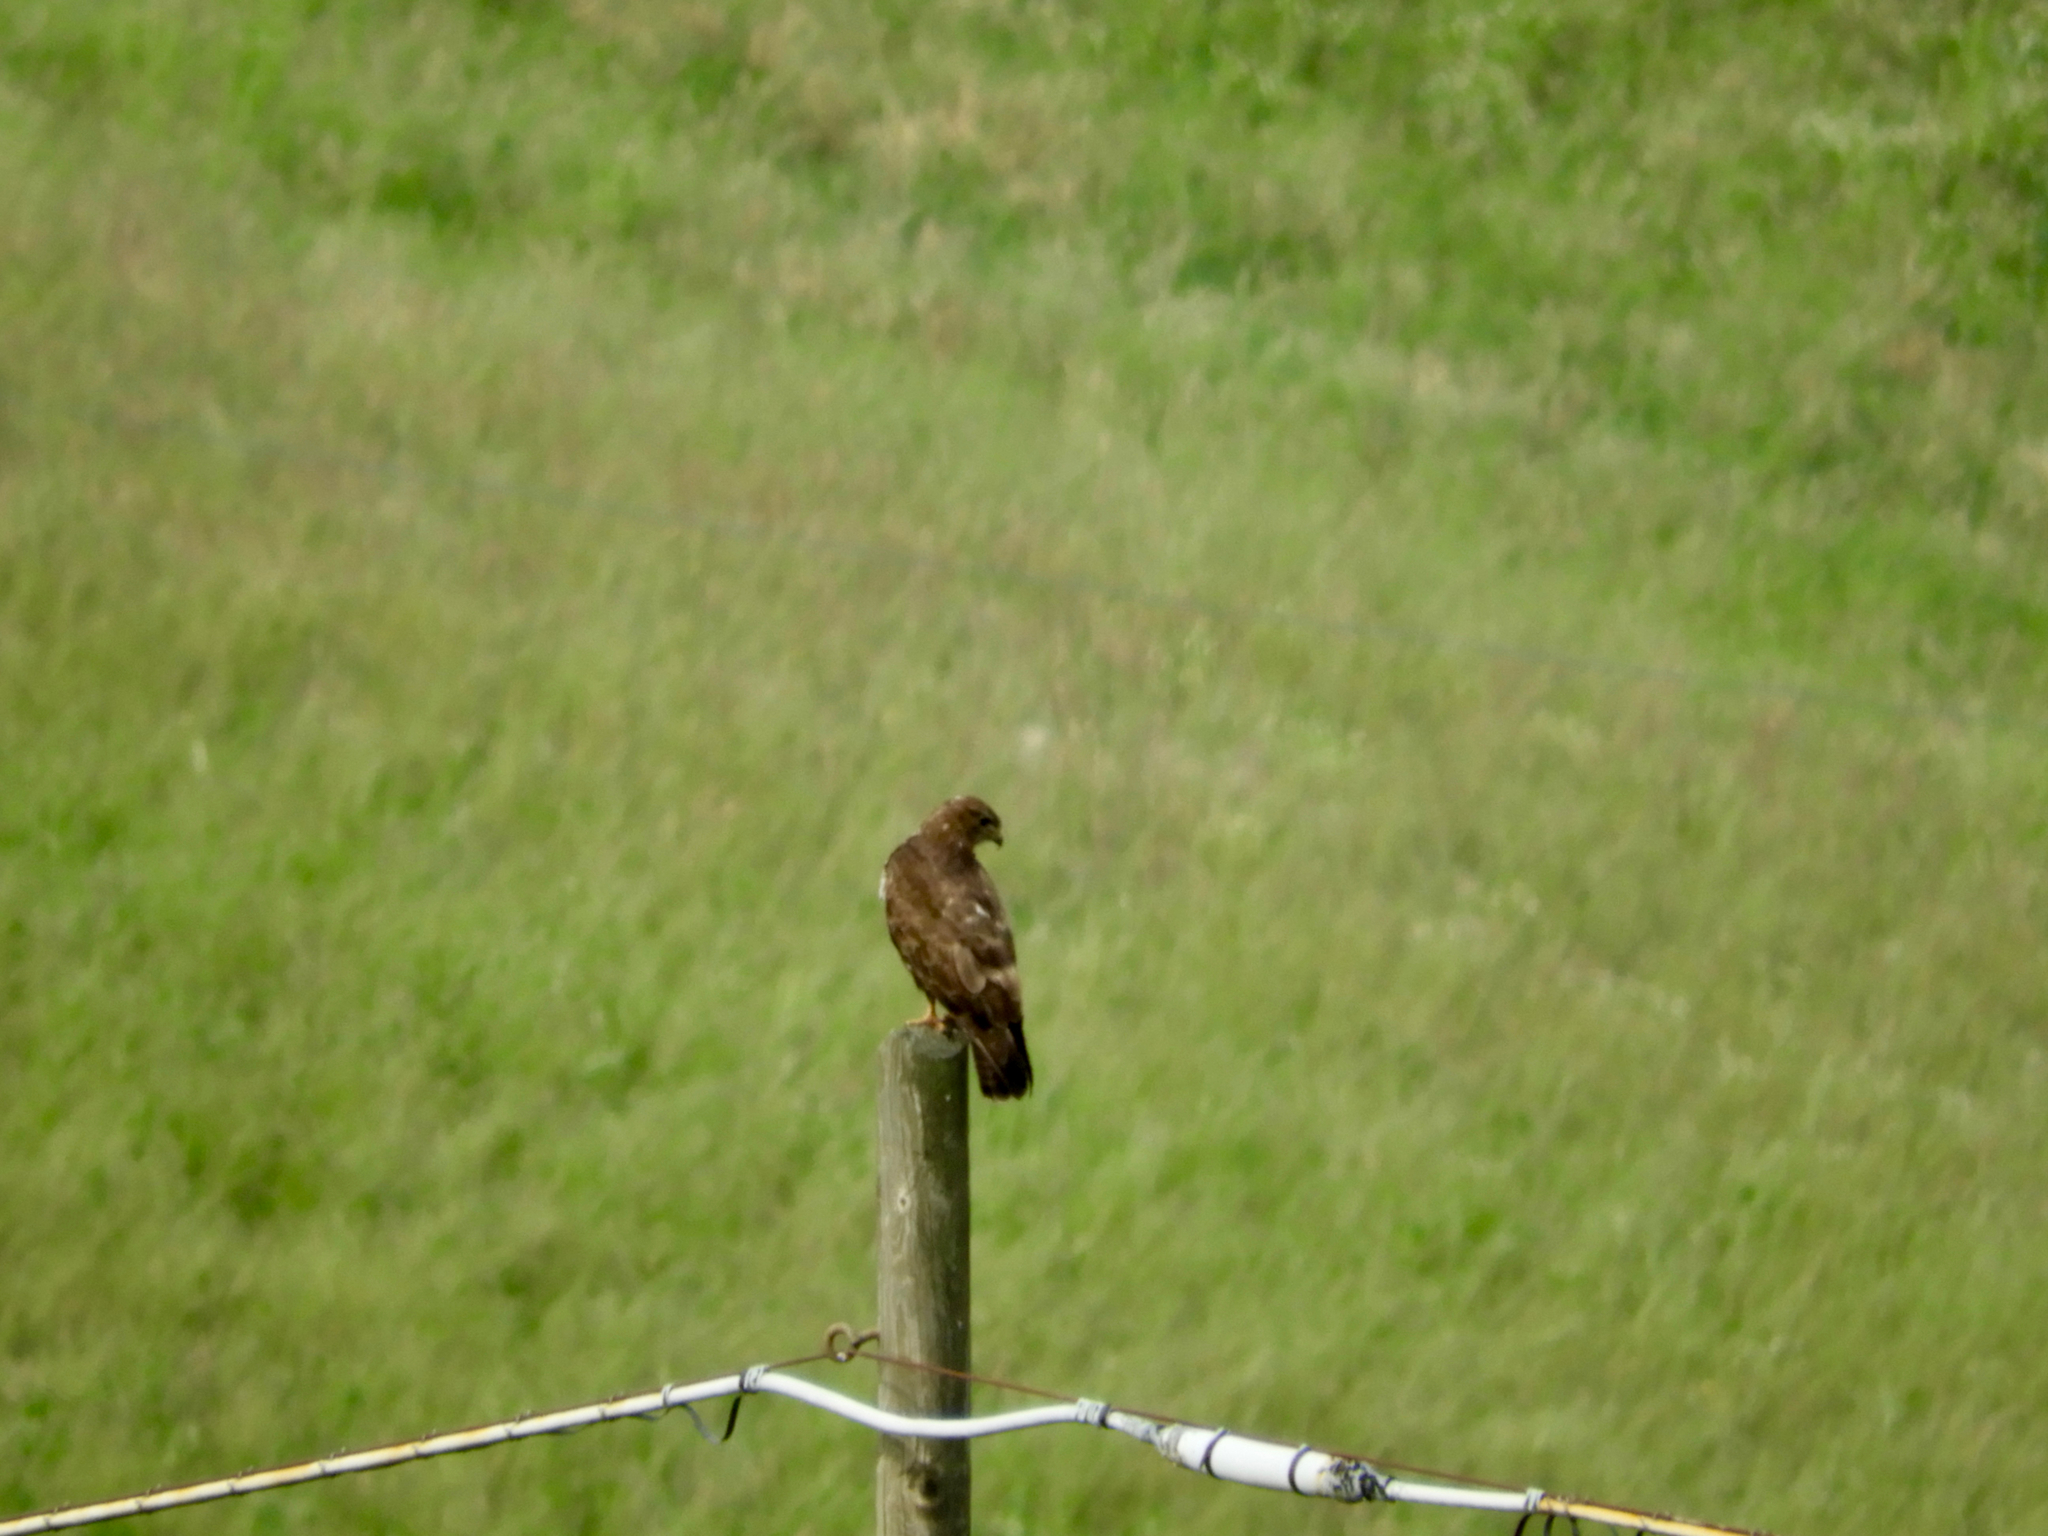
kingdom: Animalia
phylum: Chordata
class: Aves
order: Accipitriformes
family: Accipitridae
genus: Buteo
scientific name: Buteo buteo
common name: Common buzzard
